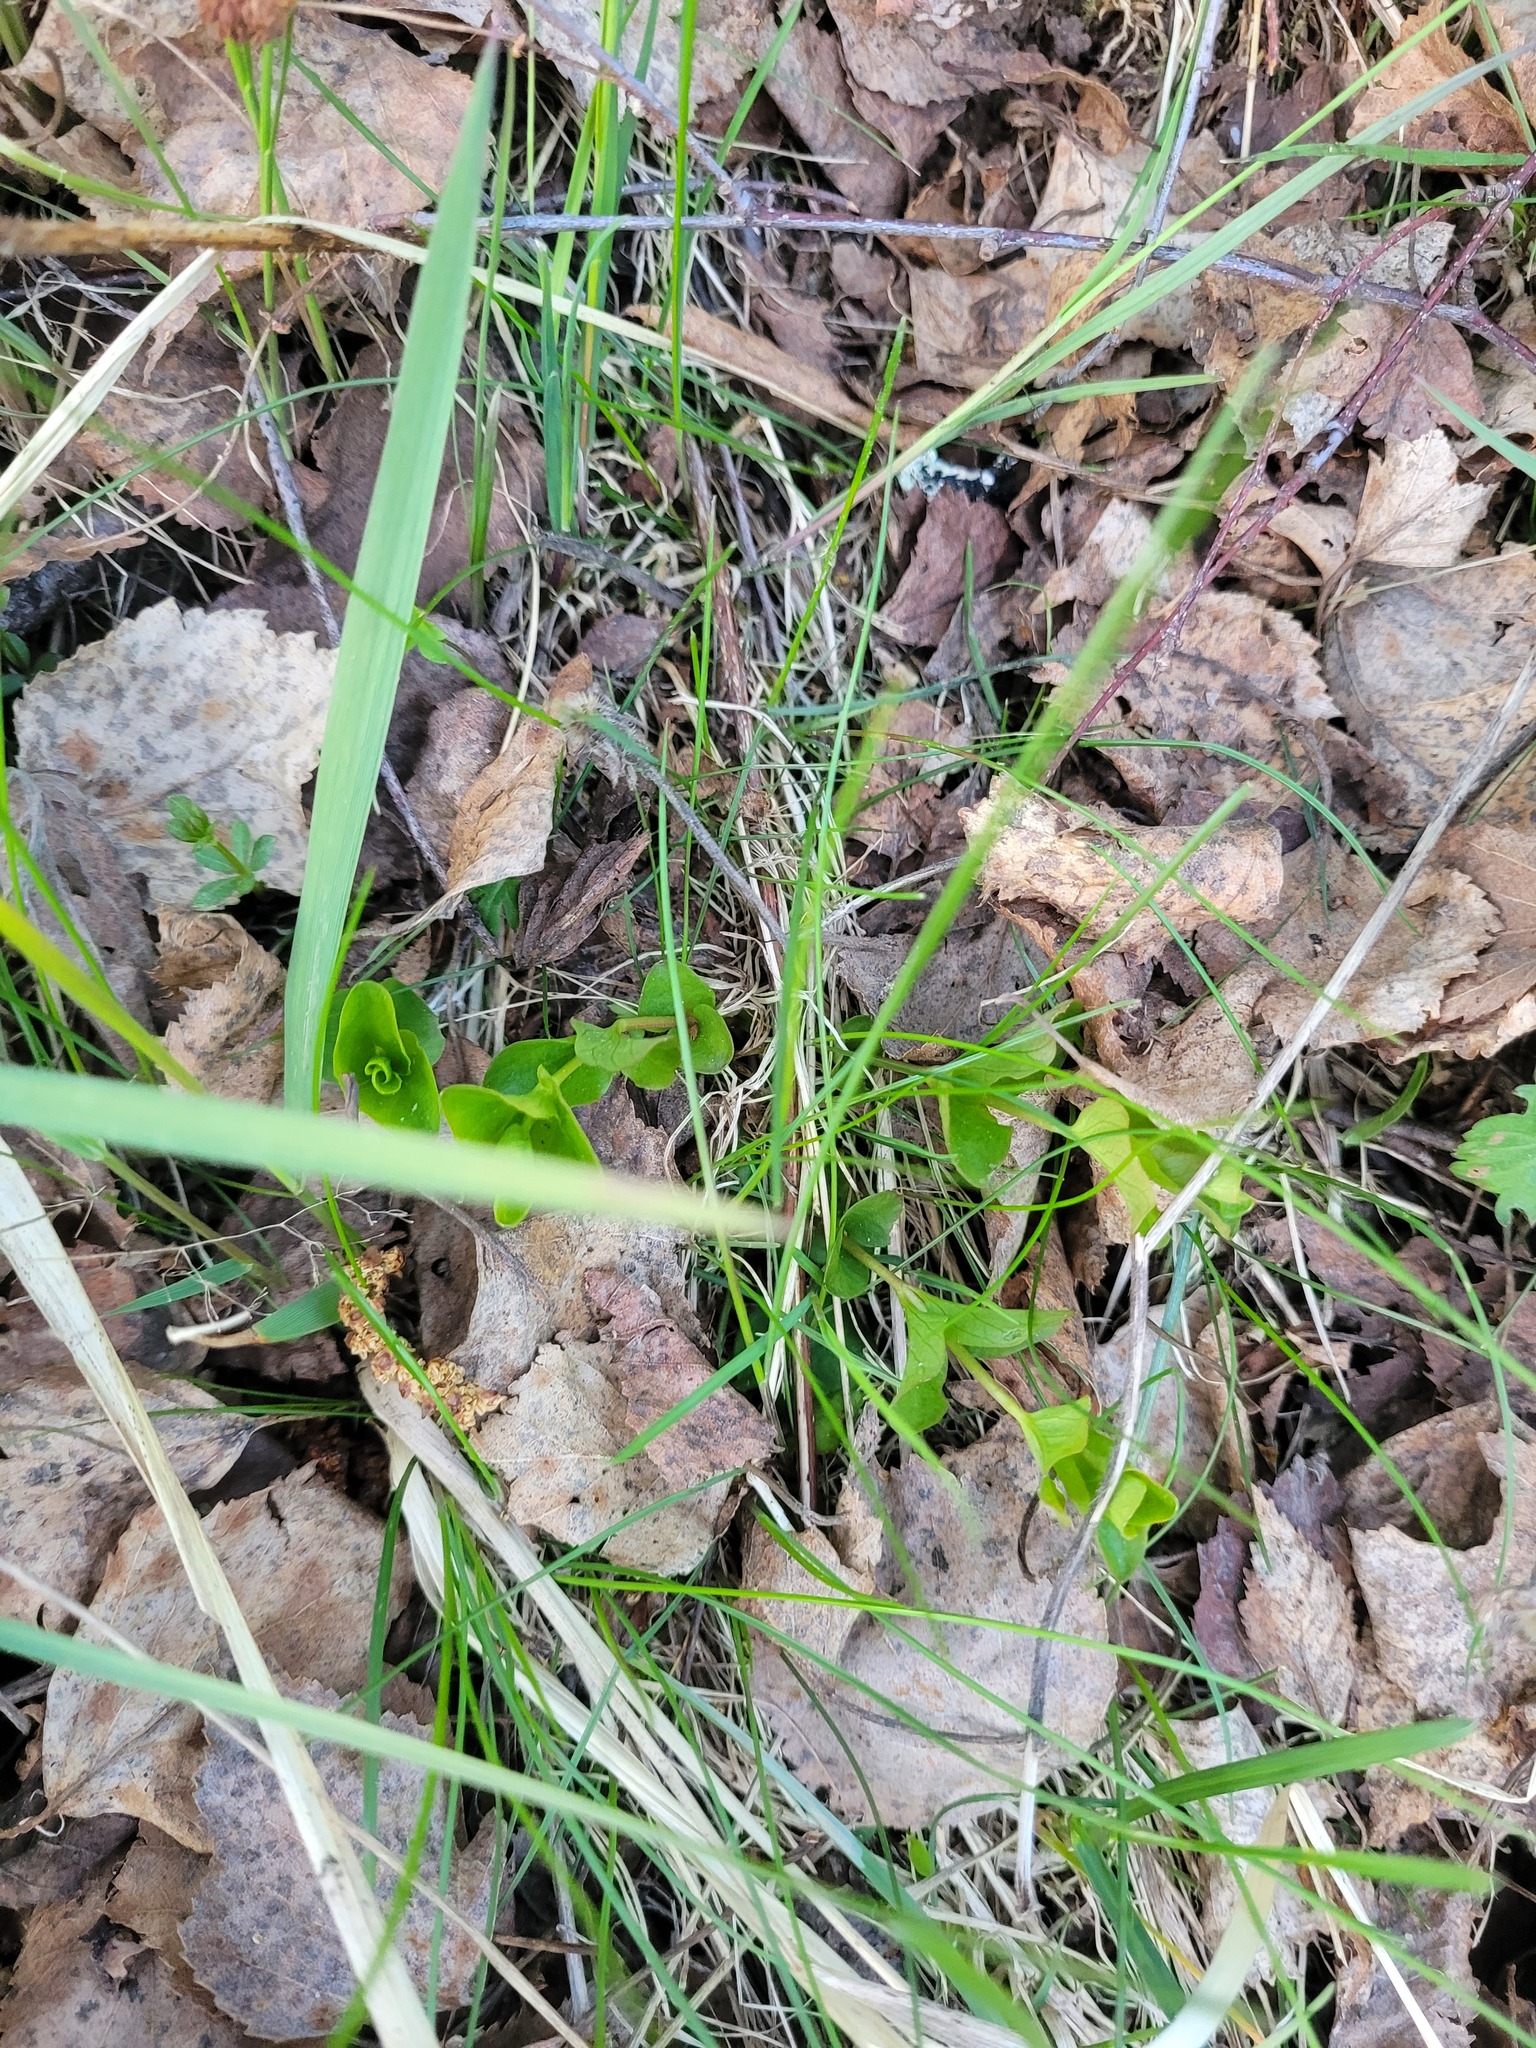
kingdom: Plantae
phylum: Tracheophyta
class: Magnoliopsida
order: Ericales
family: Primulaceae
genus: Lysimachia
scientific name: Lysimachia nummularia
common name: Moneywort
